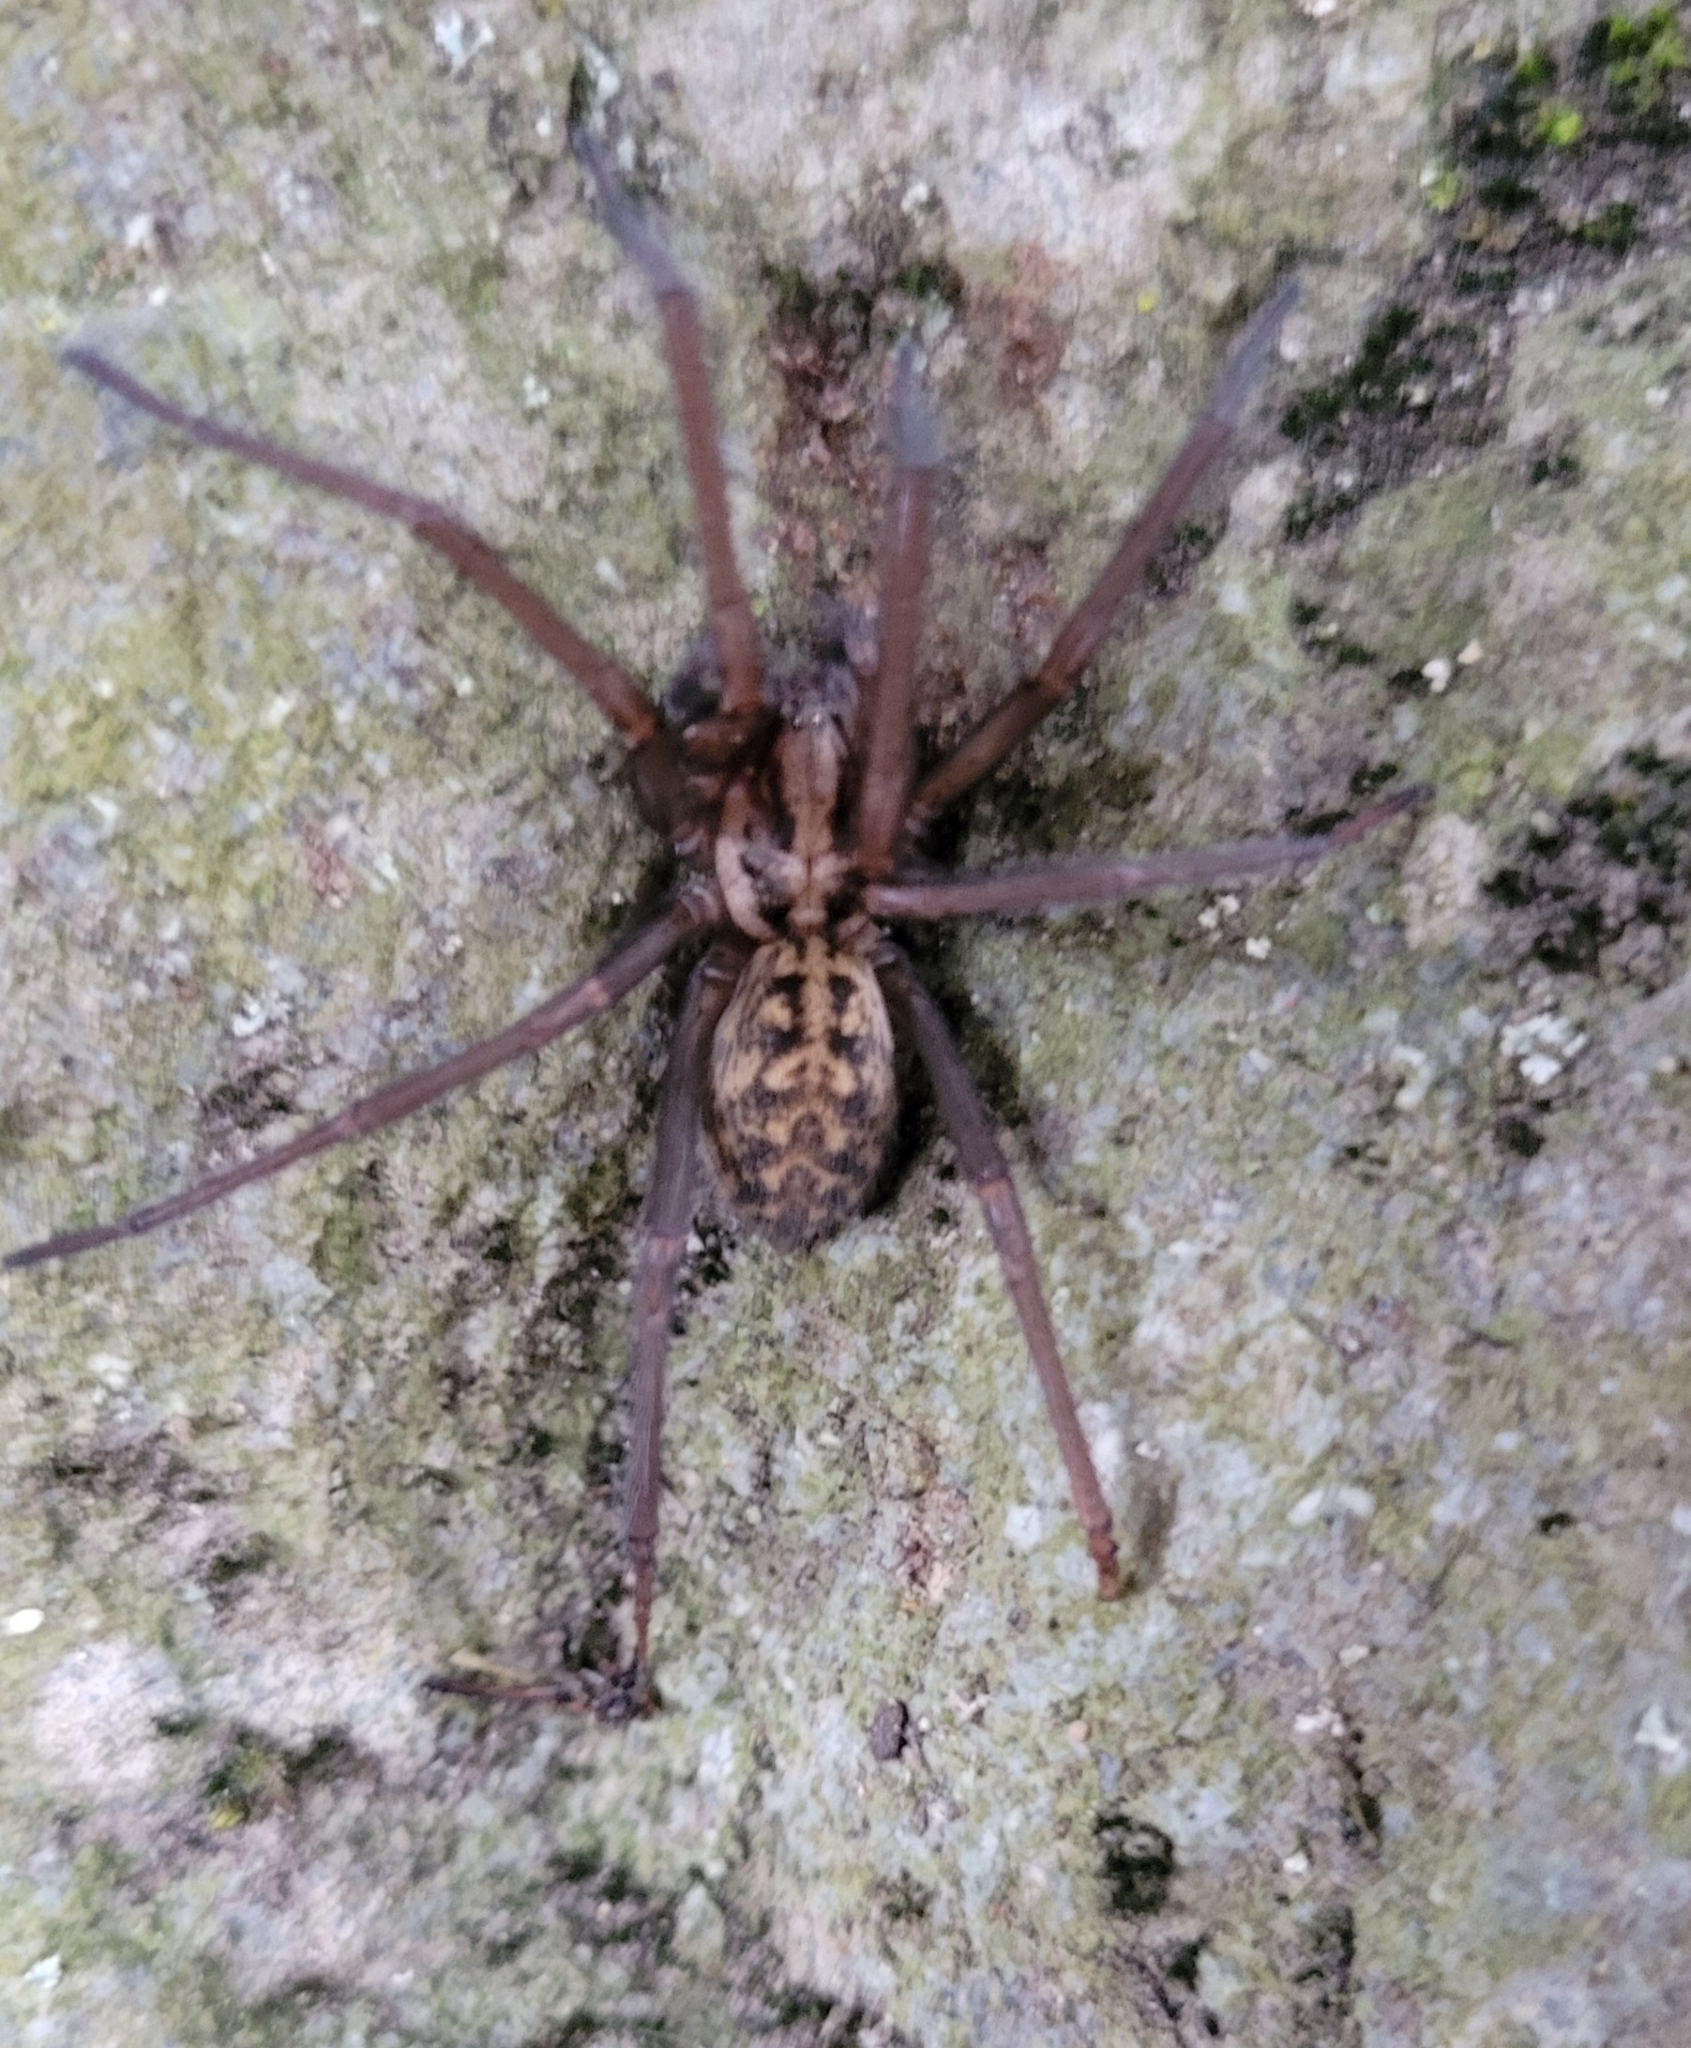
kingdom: Animalia
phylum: Arthropoda
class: Arachnida
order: Araneae
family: Agelenidae
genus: Eratigena
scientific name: Eratigena duellica
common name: Giant house spider
